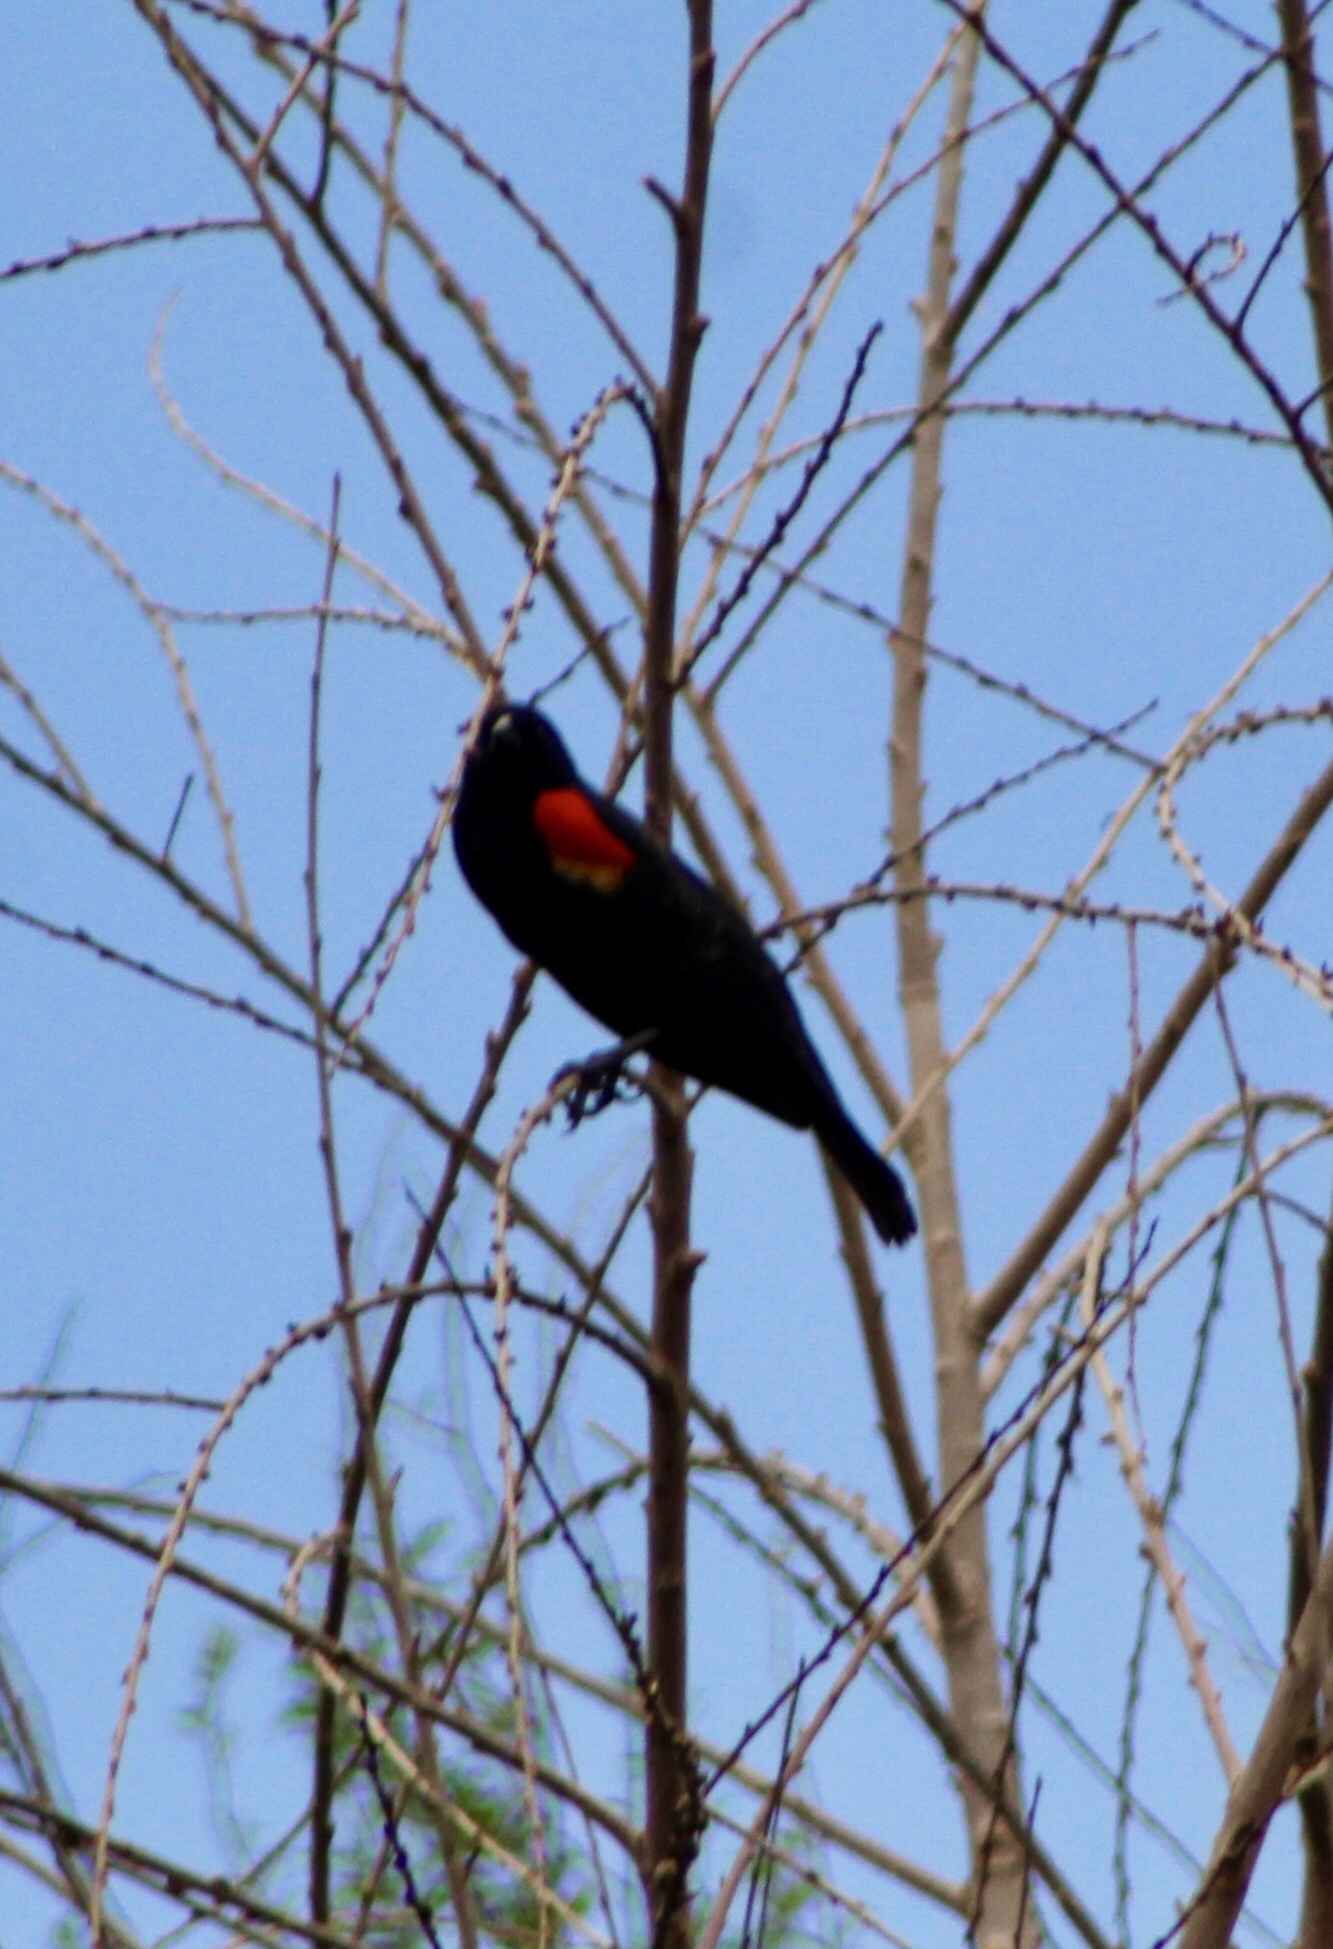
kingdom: Animalia
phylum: Chordata
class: Aves
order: Passeriformes
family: Icteridae
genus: Agelaius
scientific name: Agelaius phoeniceus
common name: Red-winged blackbird
